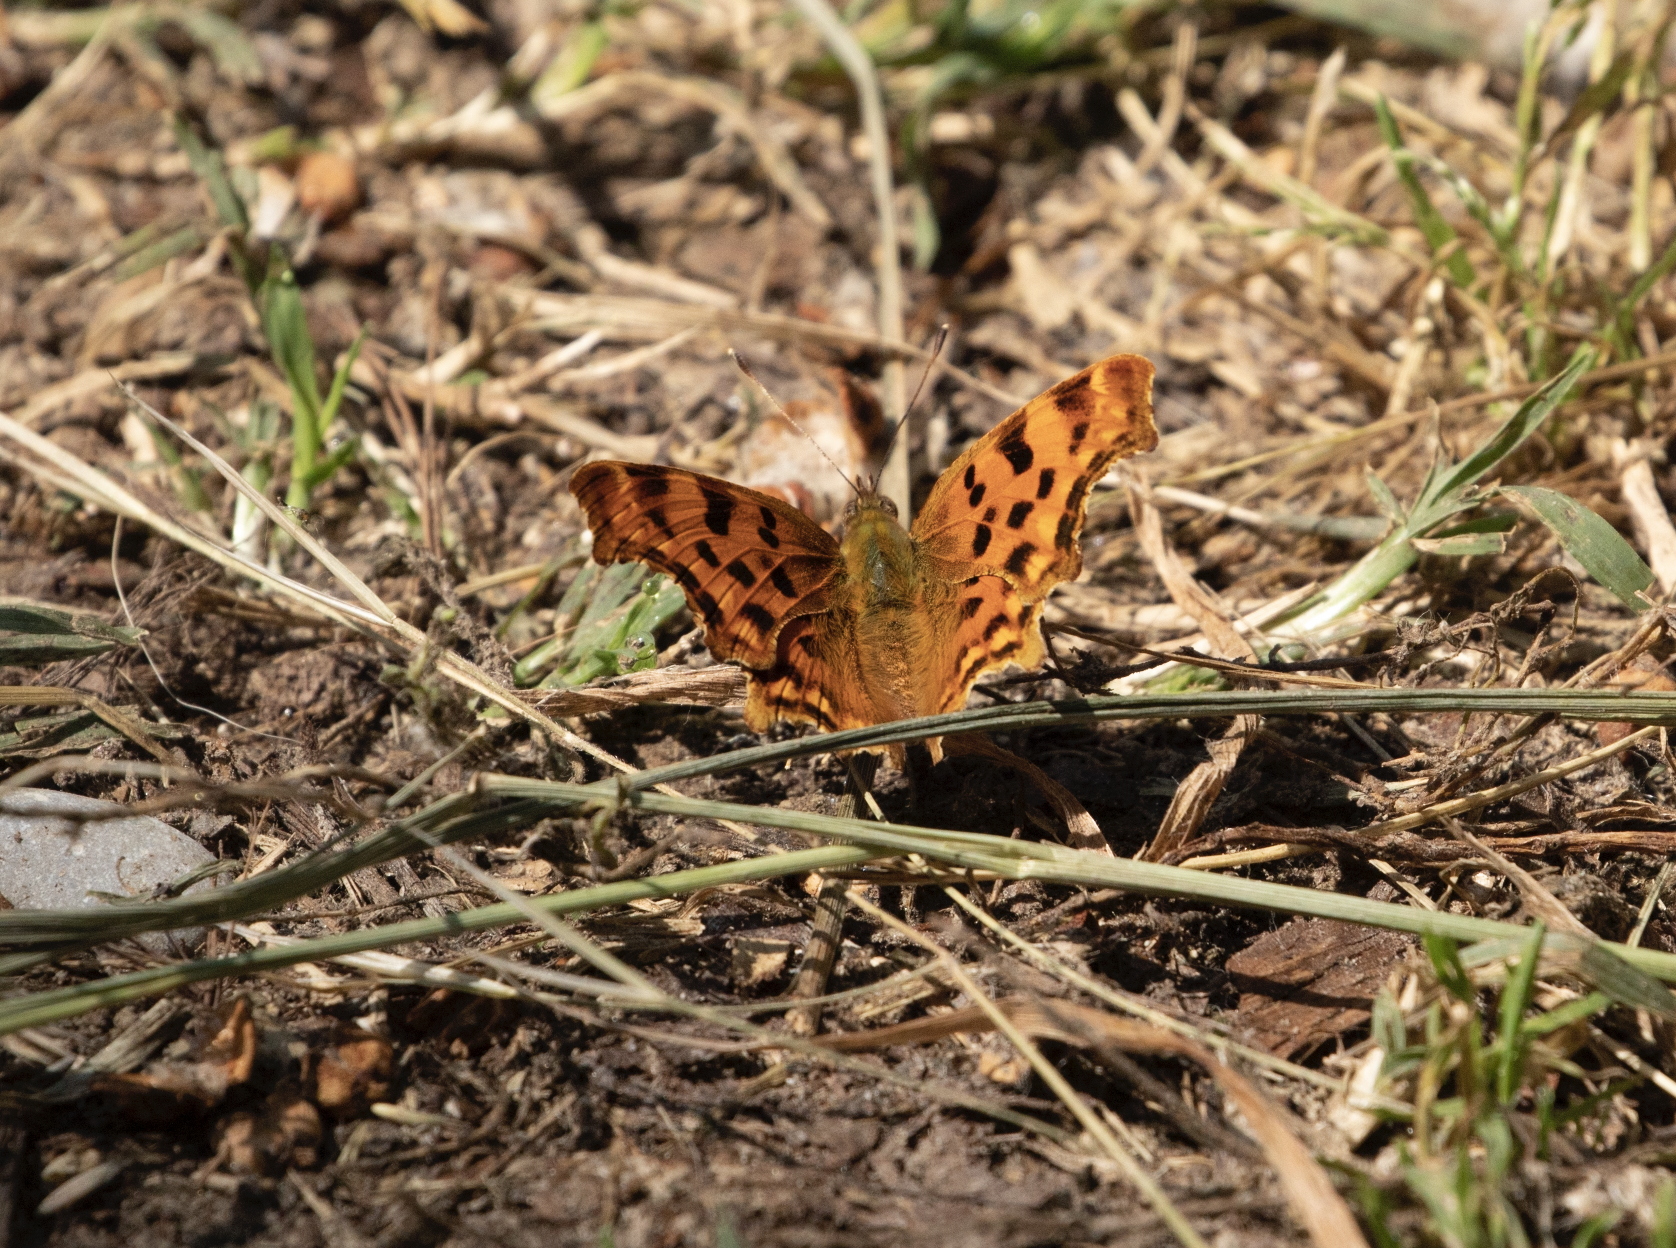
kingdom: Animalia
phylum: Arthropoda
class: Insecta
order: Lepidoptera
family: Nymphalidae
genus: Polygonia
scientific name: Polygonia c-album
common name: Comma
